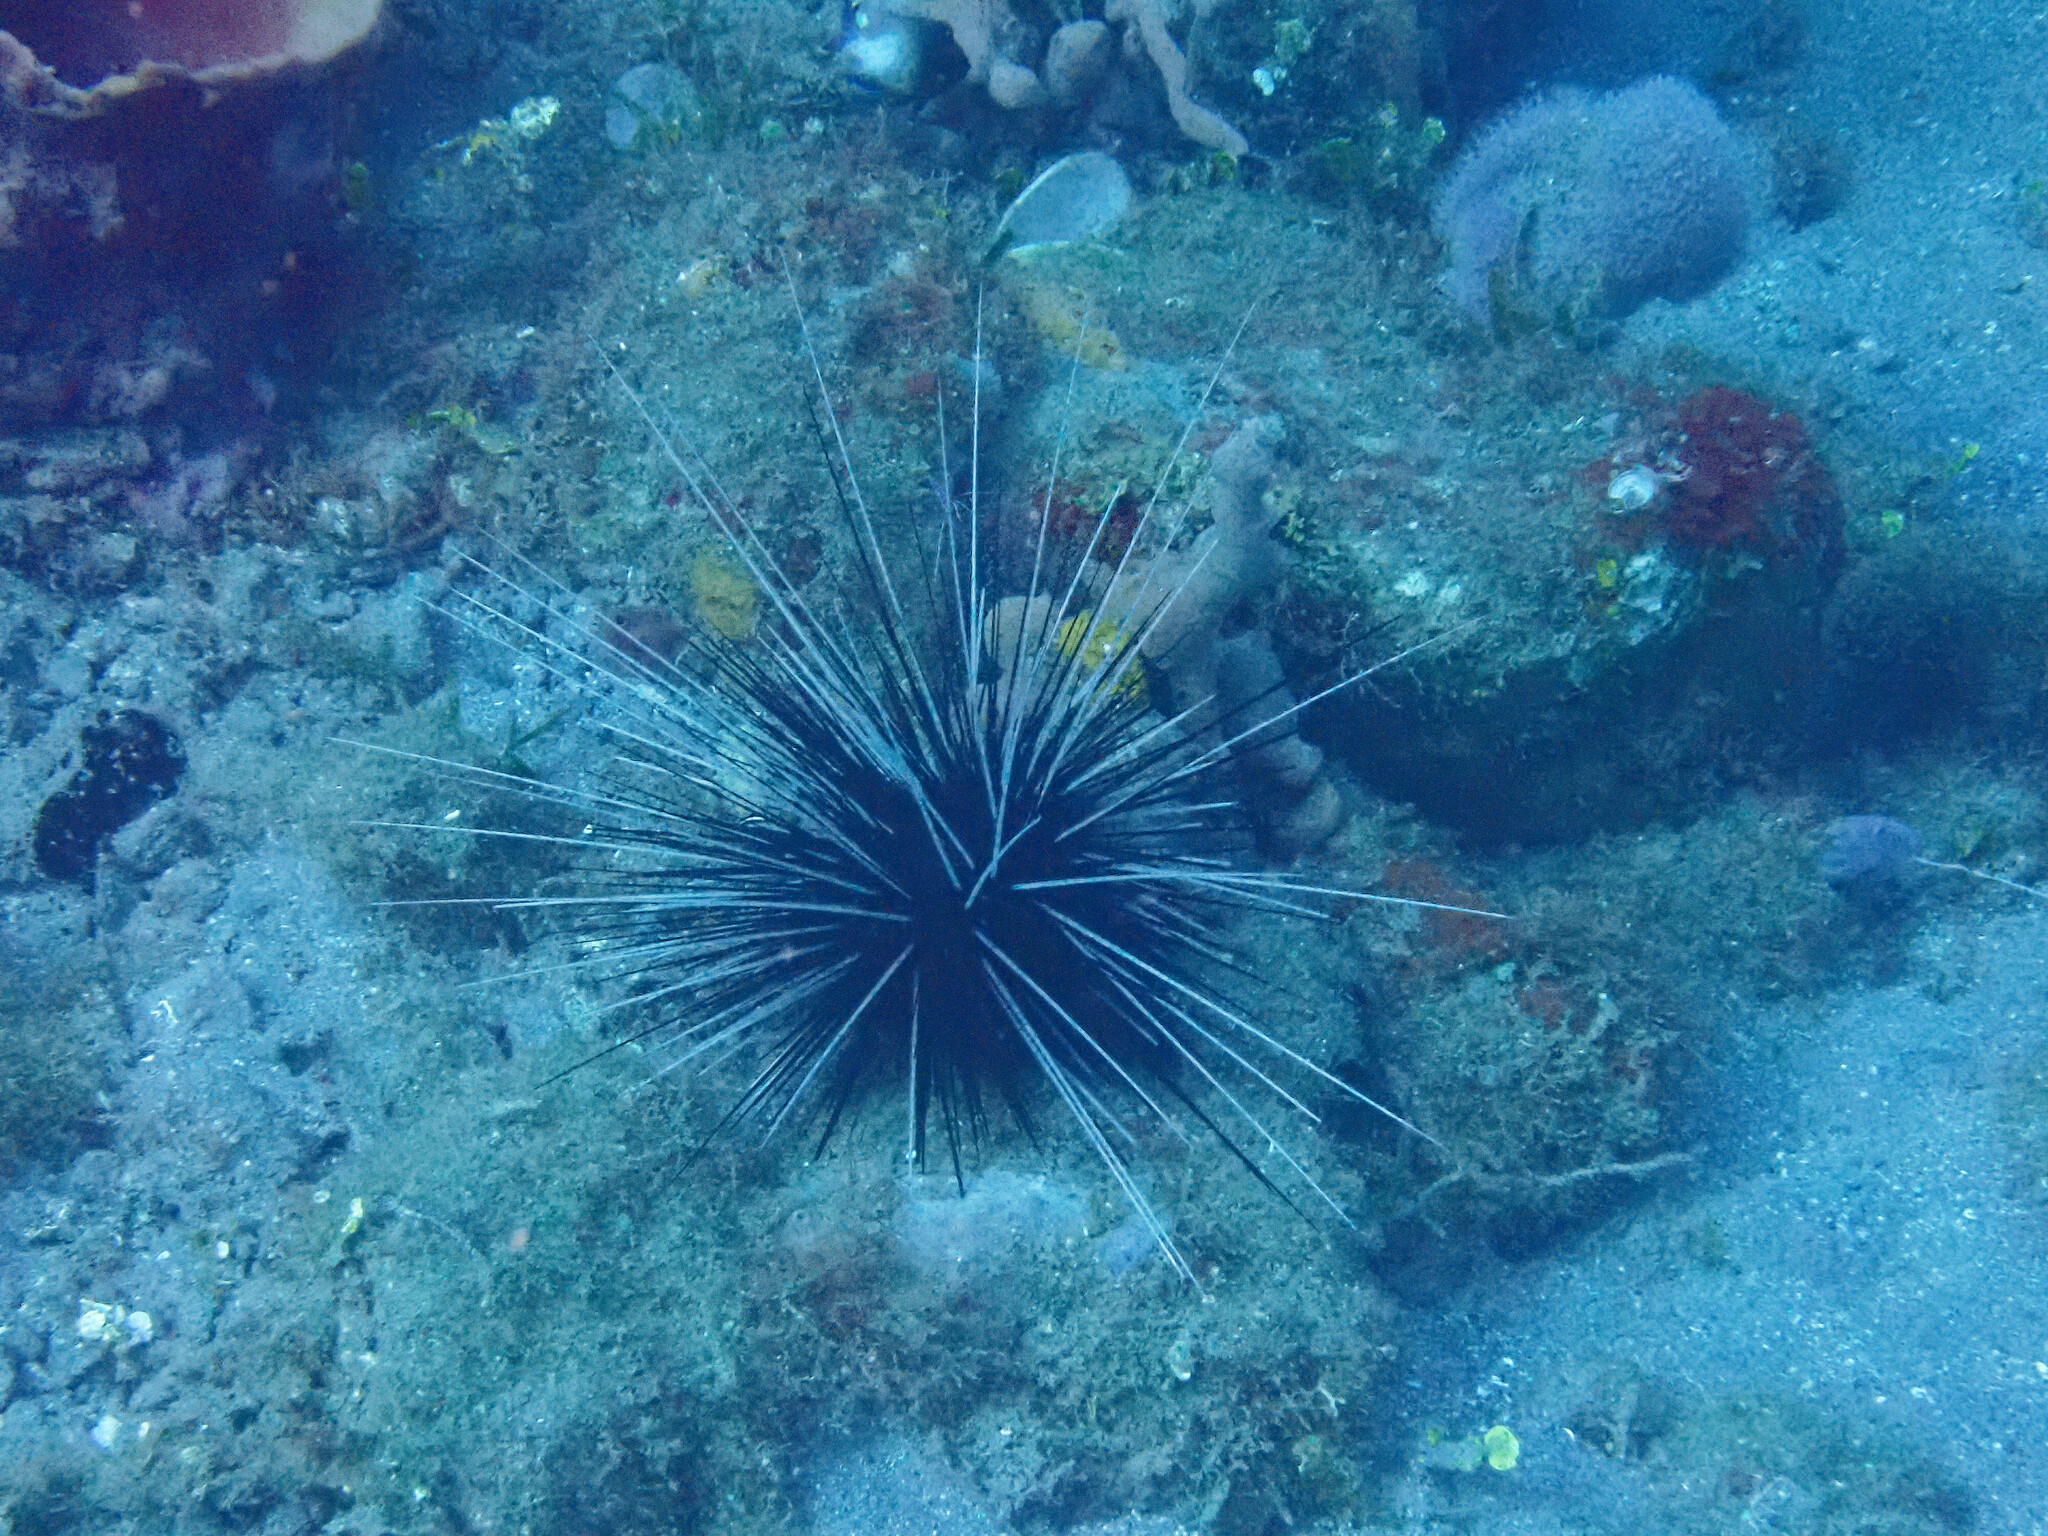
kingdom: Animalia
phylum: Echinodermata
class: Echinoidea
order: Diadematoida
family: Diadematidae
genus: Diadema
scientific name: Diadema antillarum
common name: Spiny urchin
